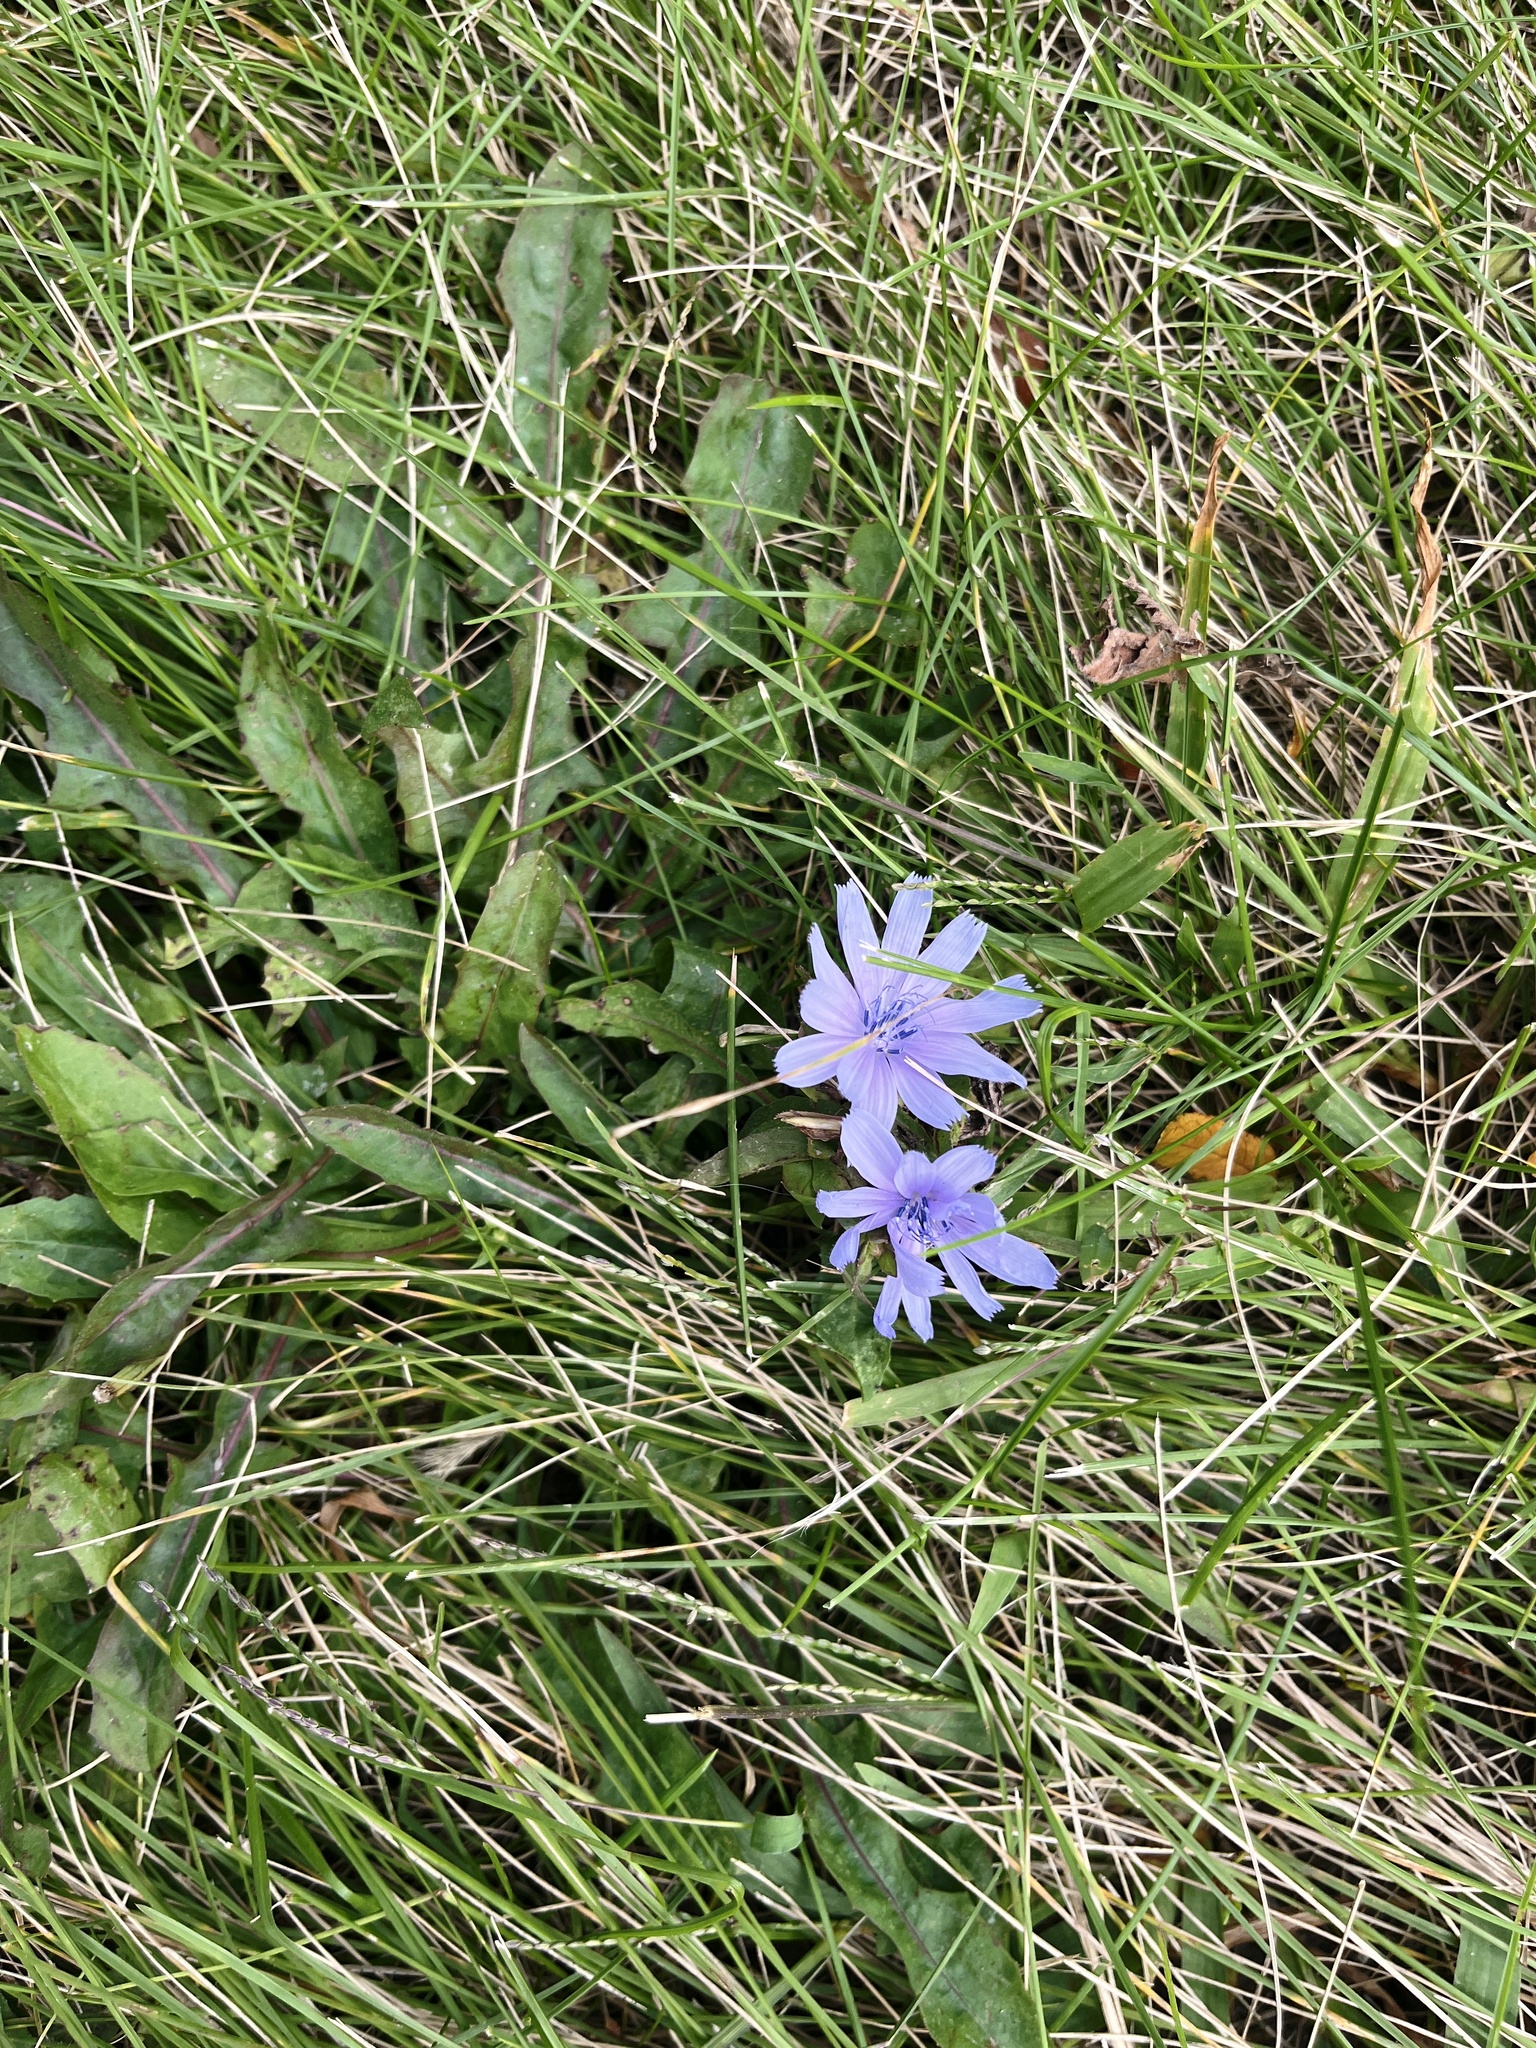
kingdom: Plantae
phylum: Tracheophyta
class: Magnoliopsida
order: Asterales
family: Asteraceae
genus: Cichorium
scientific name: Cichorium intybus
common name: Chicory
